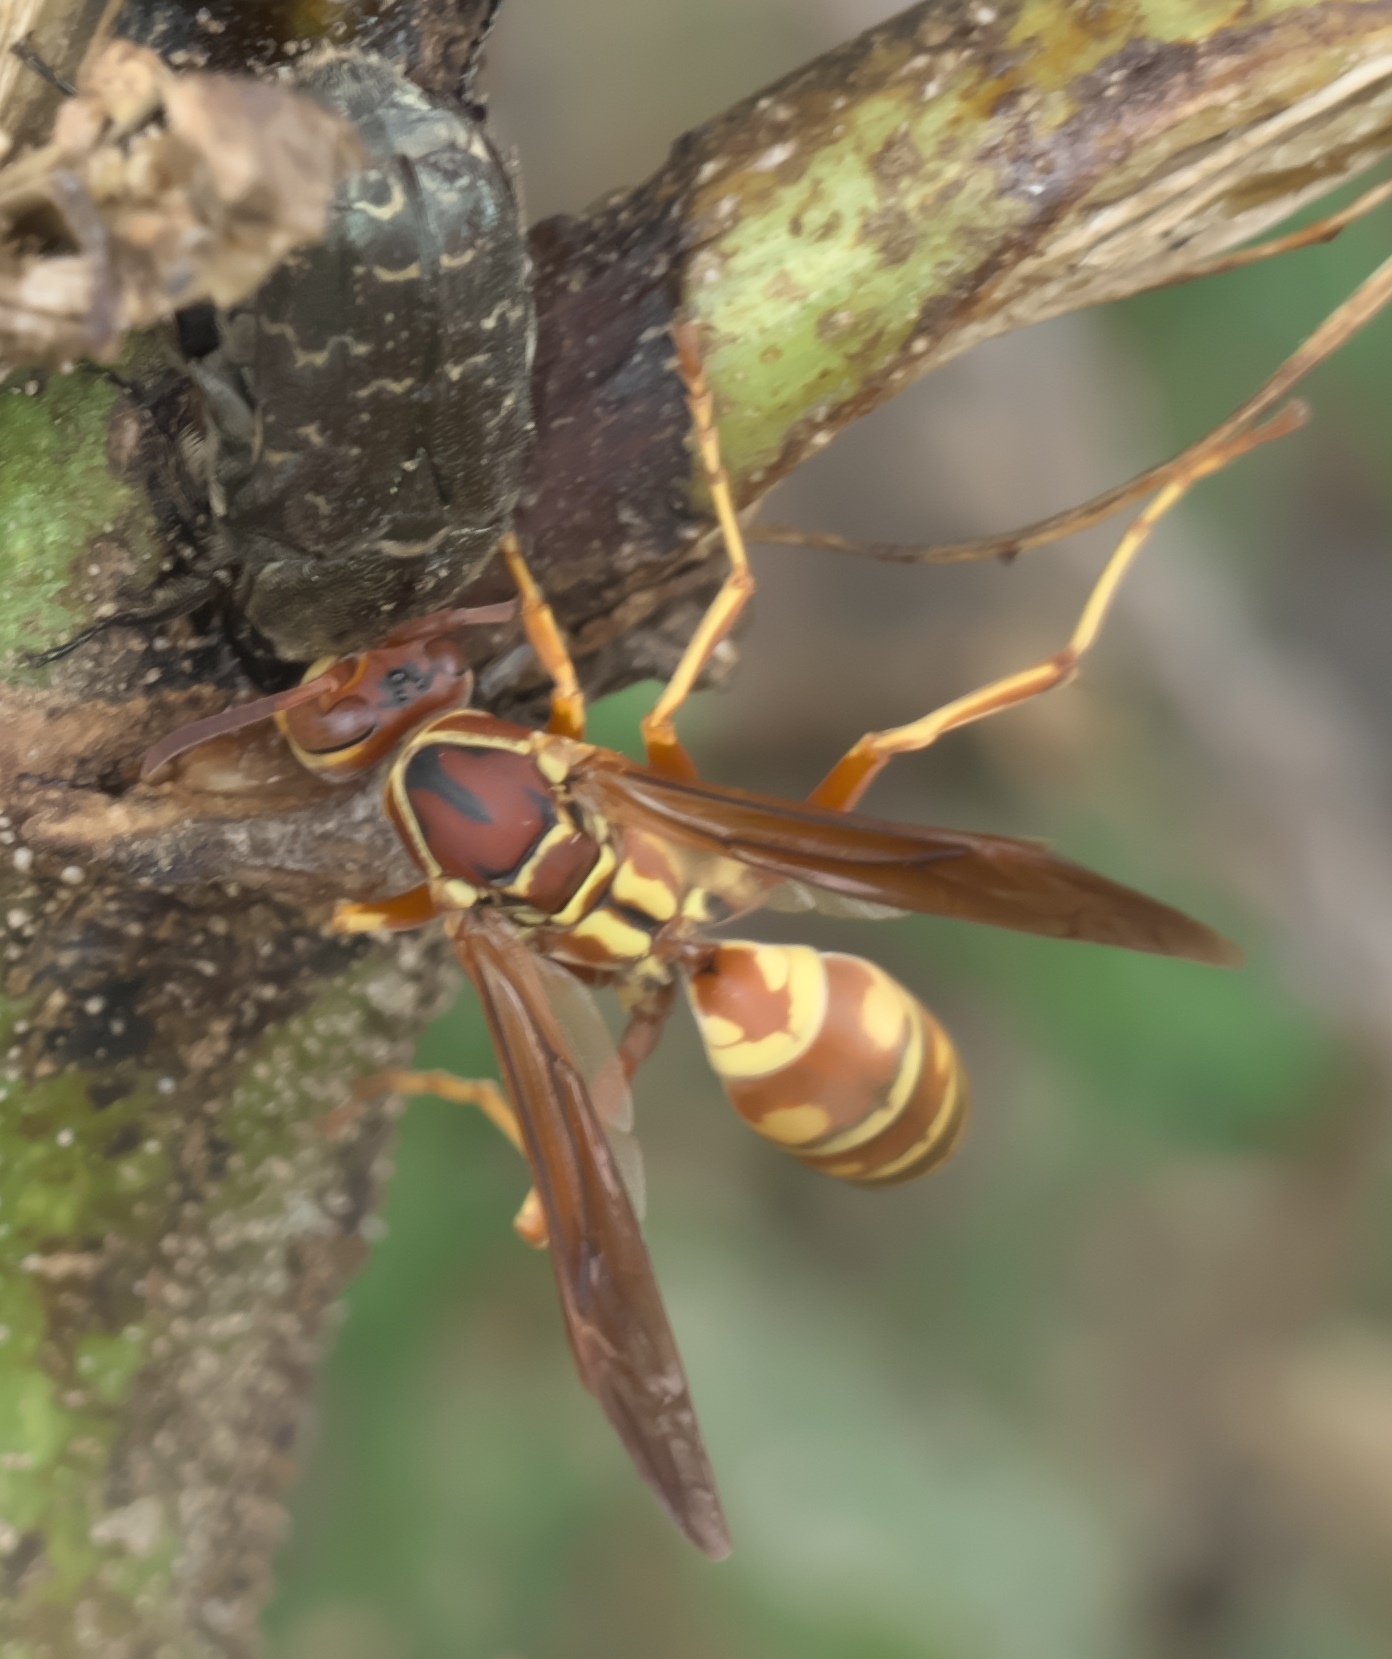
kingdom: Animalia
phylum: Arthropoda
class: Insecta
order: Hymenoptera
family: Vespidae
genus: Fuscopolistes
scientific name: Fuscopolistes
